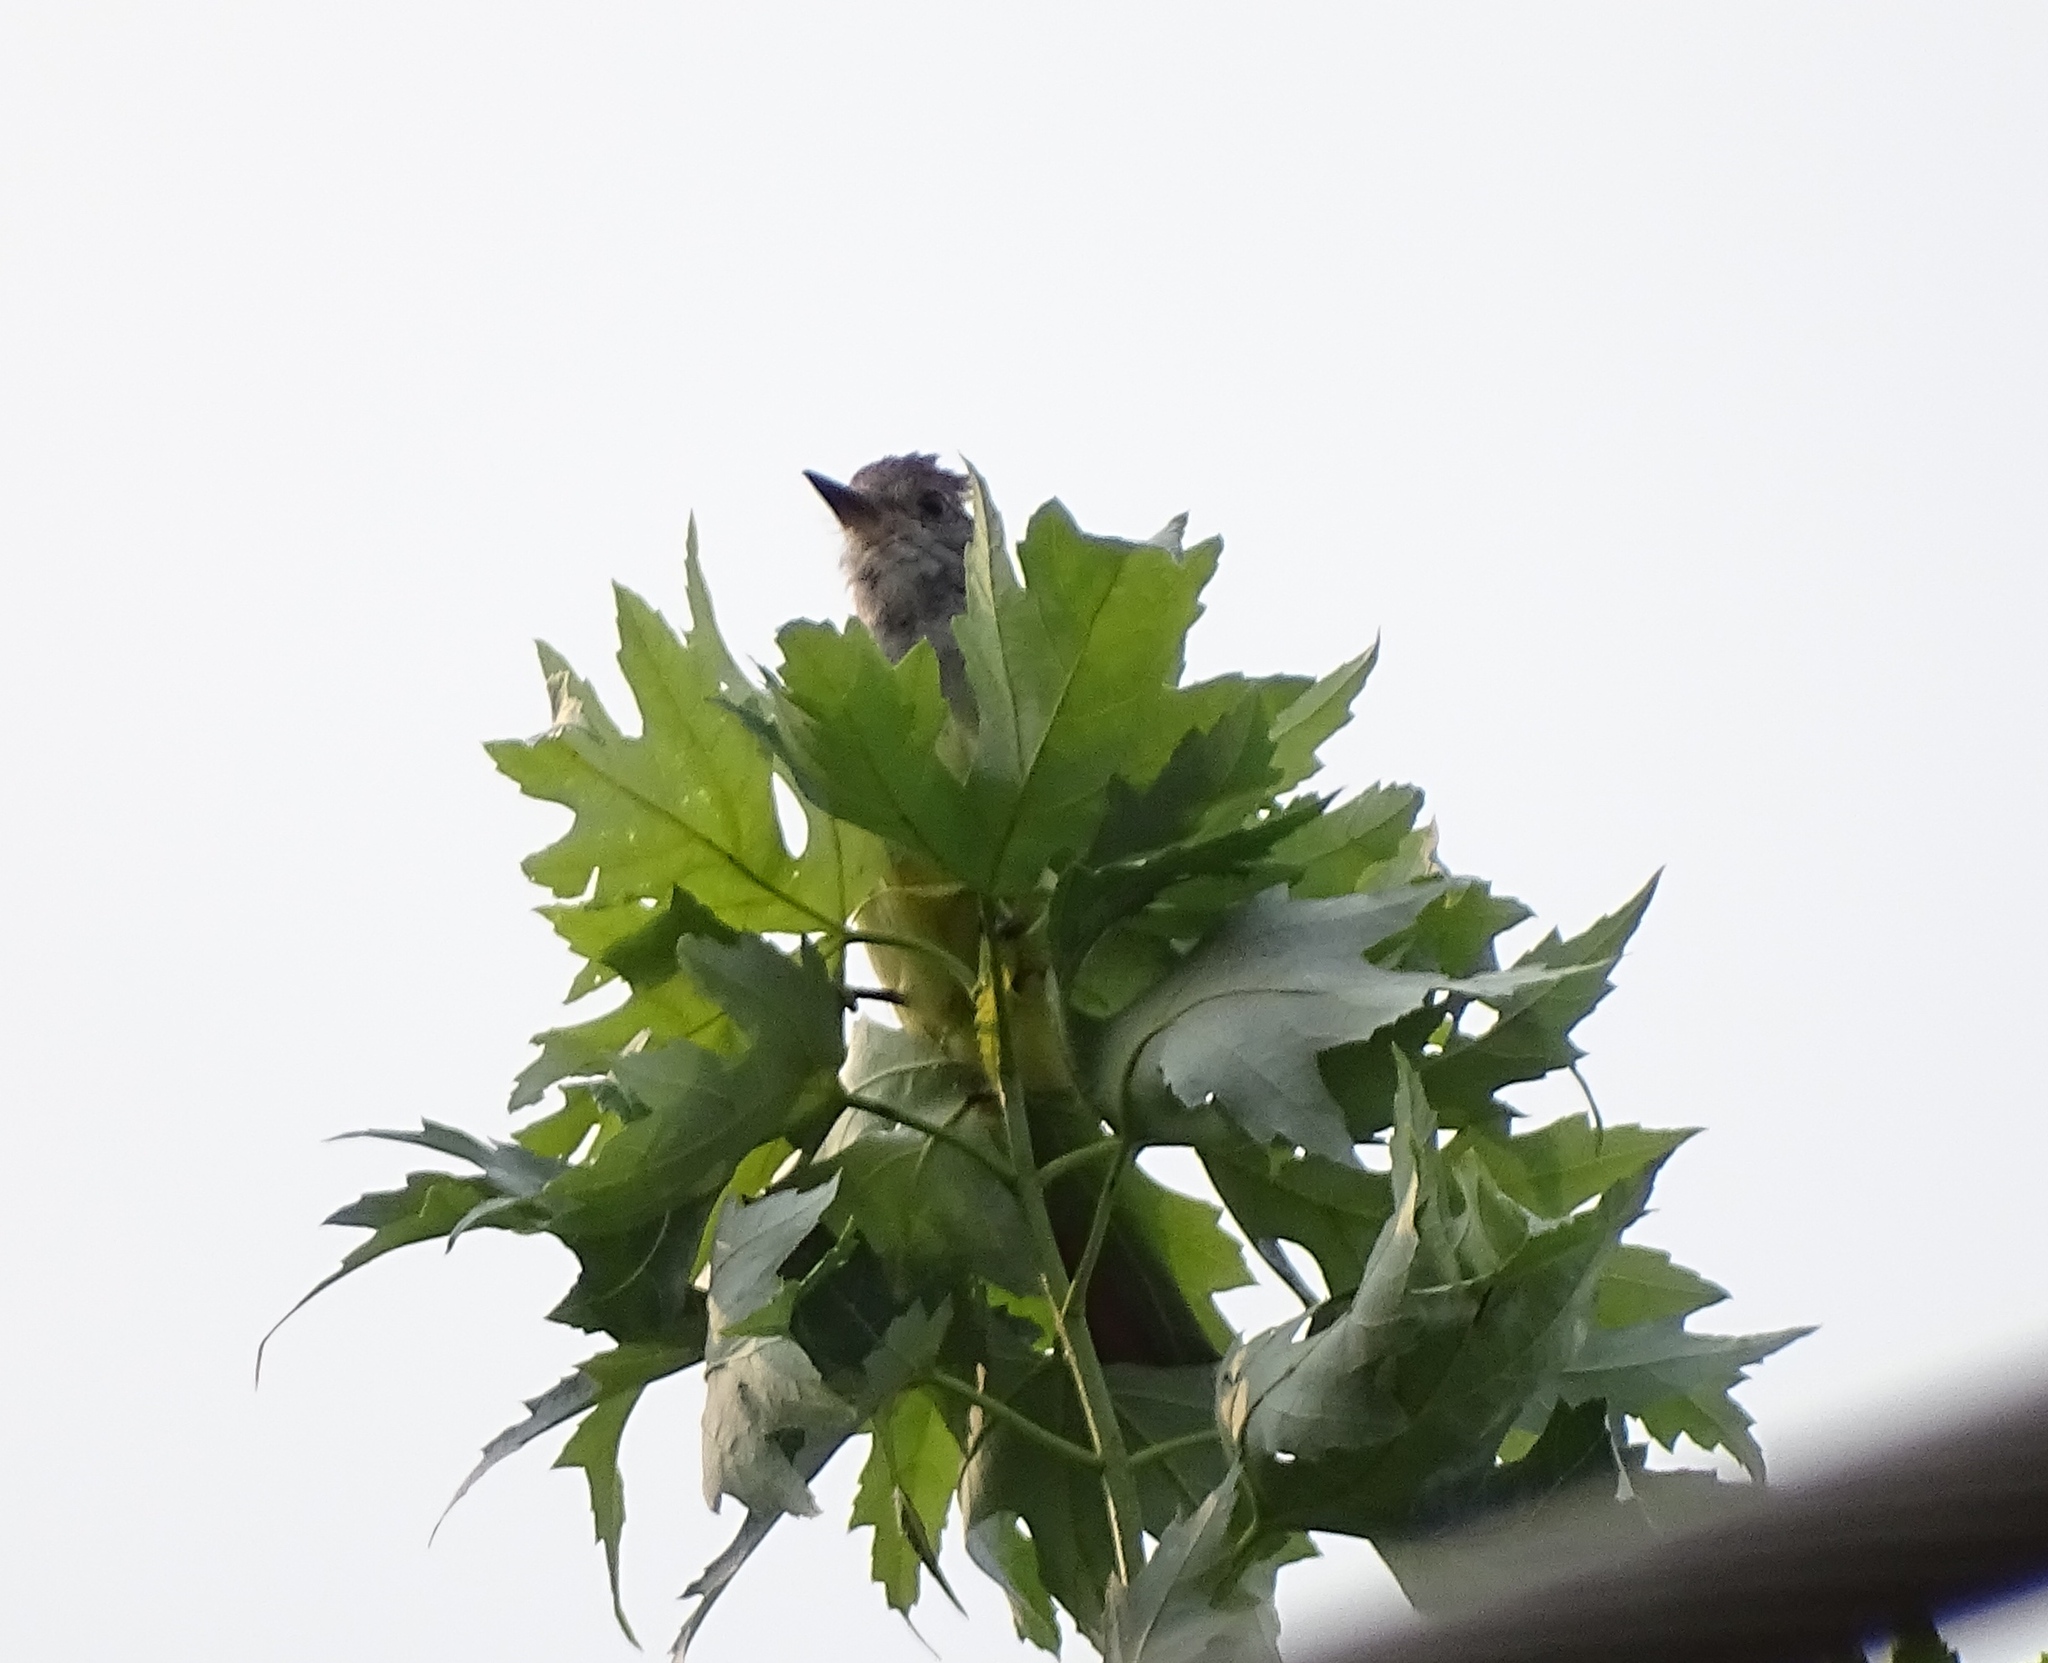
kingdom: Animalia
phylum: Chordata
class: Aves
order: Passeriformes
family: Tyrannidae
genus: Myiarchus
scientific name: Myiarchus crinitus
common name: Great crested flycatcher
